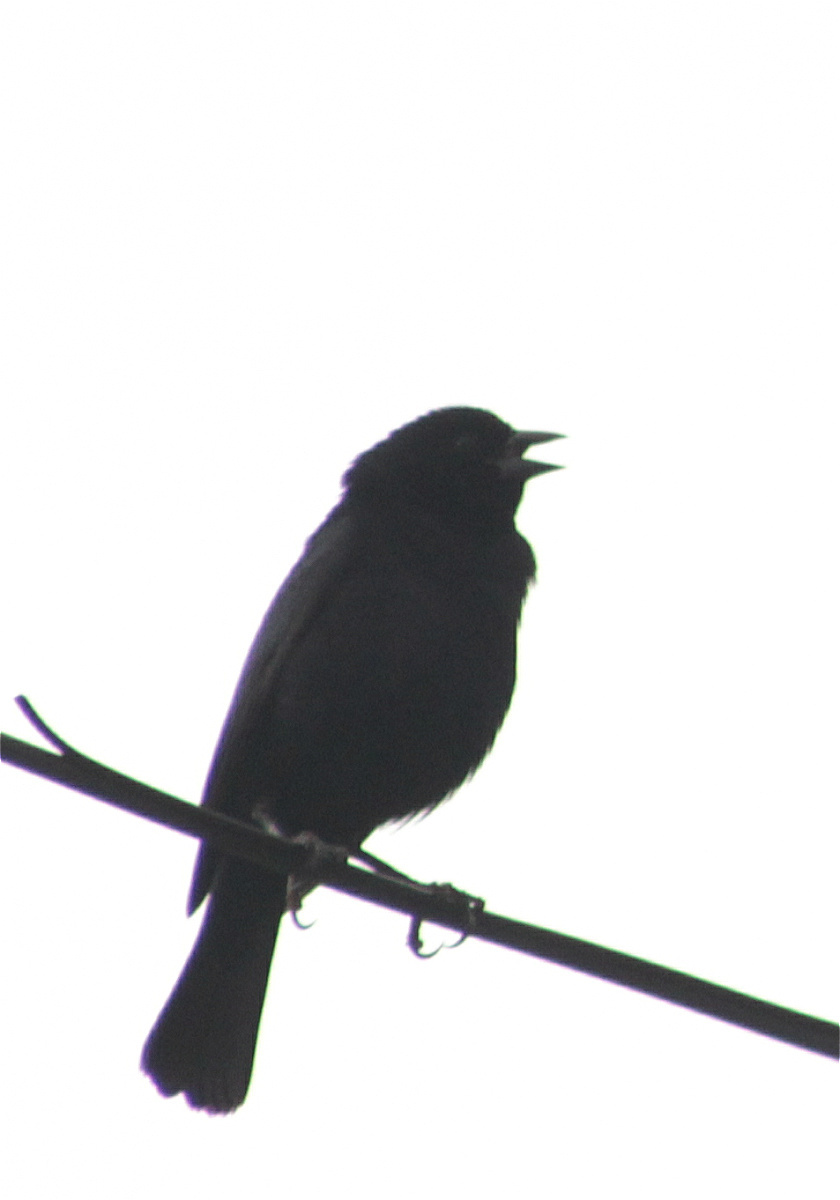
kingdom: Animalia
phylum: Chordata
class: Aves
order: Passeriformes
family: Icteridae
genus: Molothrus
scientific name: Molothrus bonariensis
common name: Shiny cowbird
